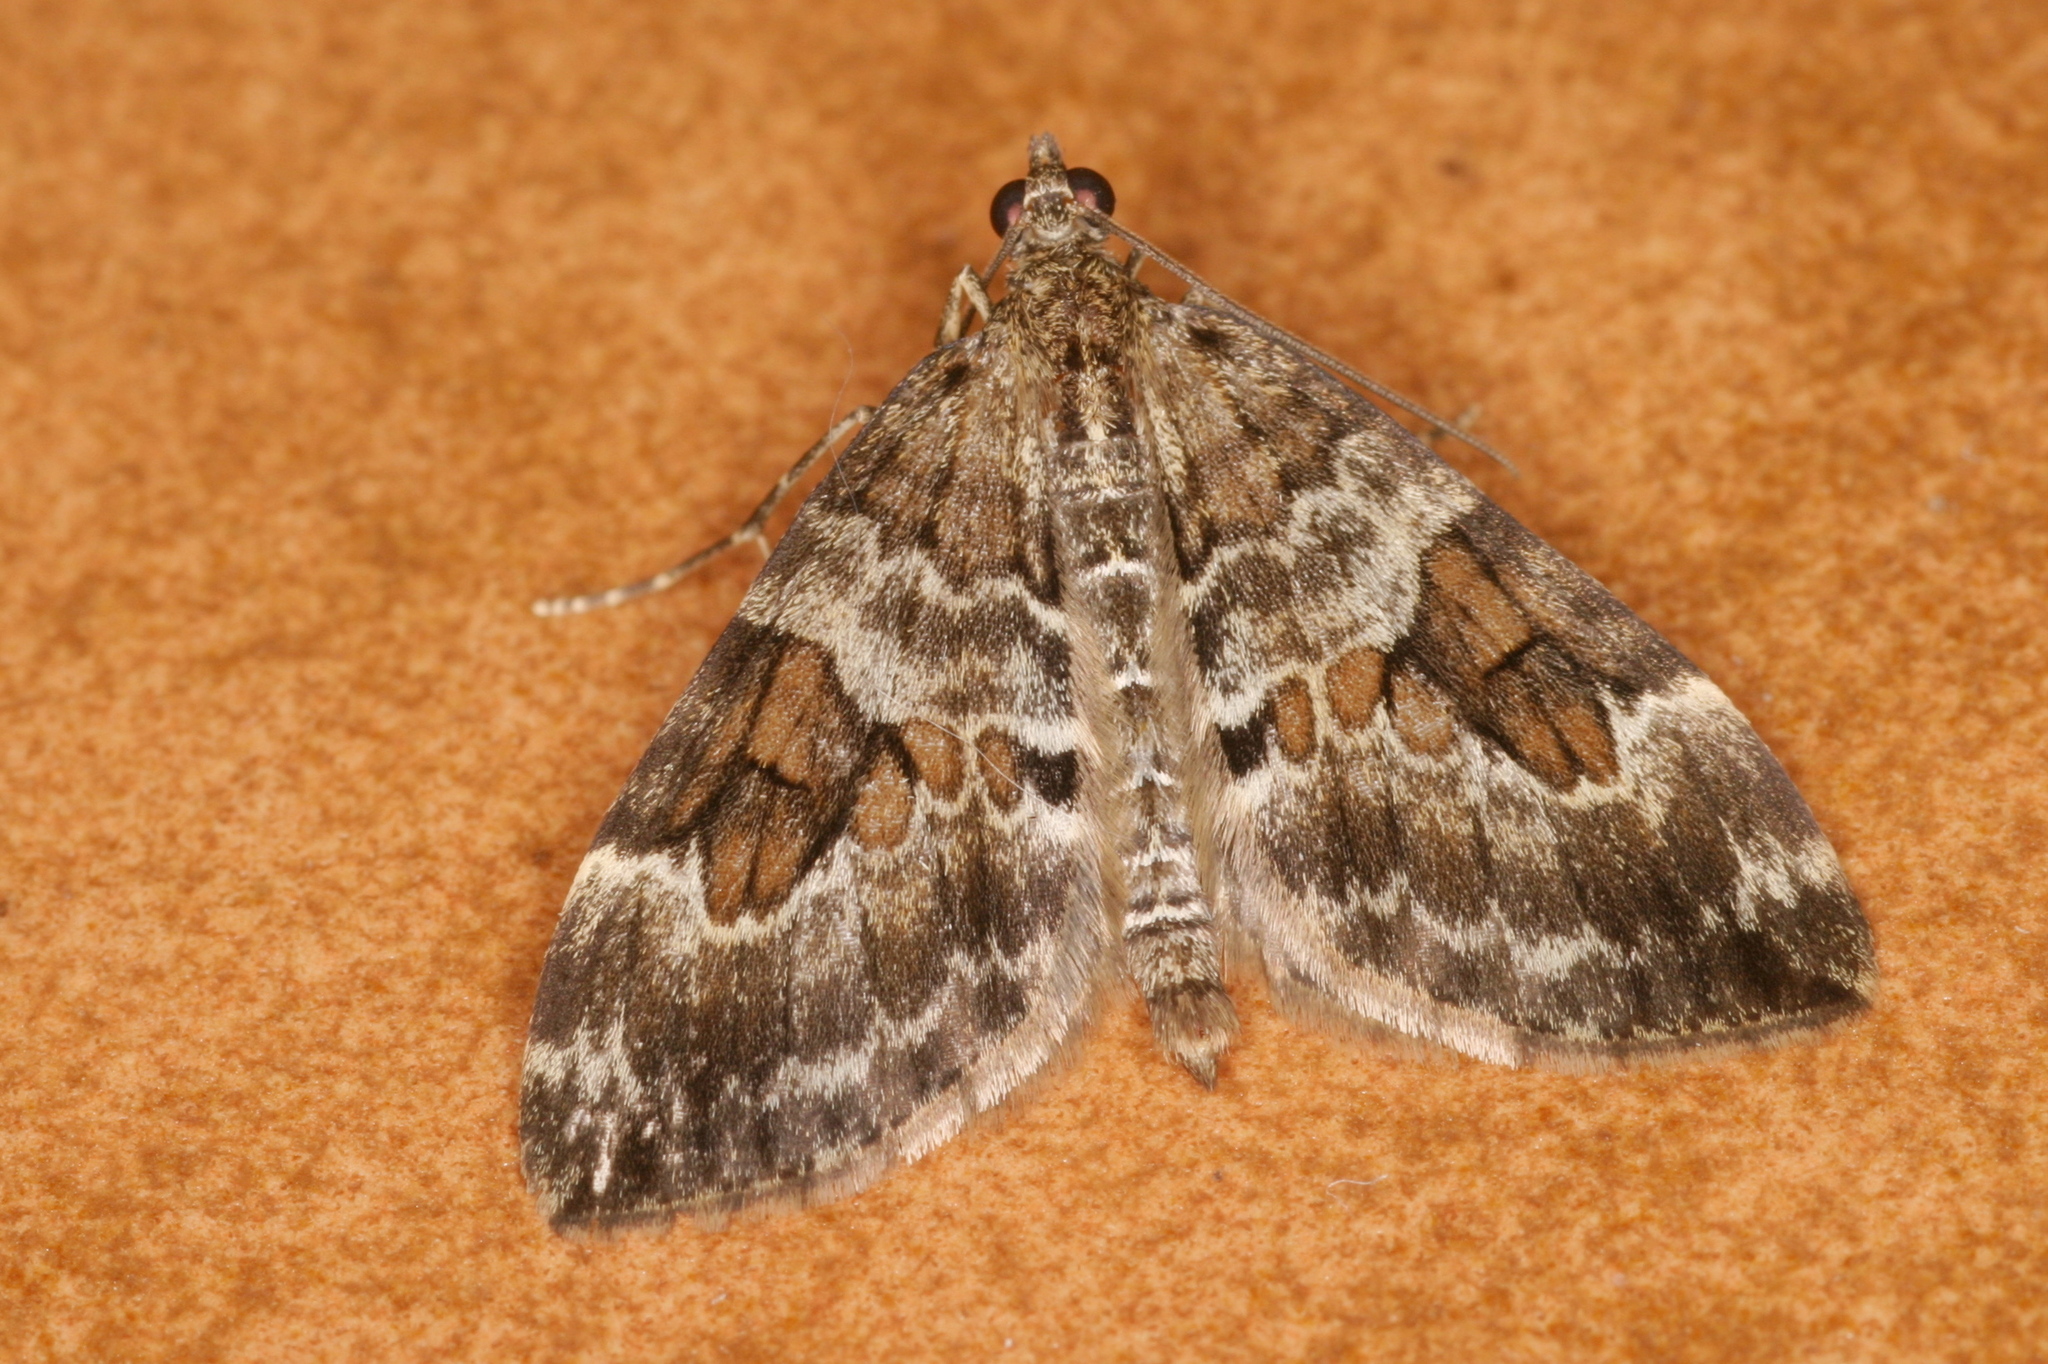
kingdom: Animalia
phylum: Arthropoda
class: Insecta
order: Lepidoptera
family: Geometridae
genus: Thera
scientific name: Thera variata
